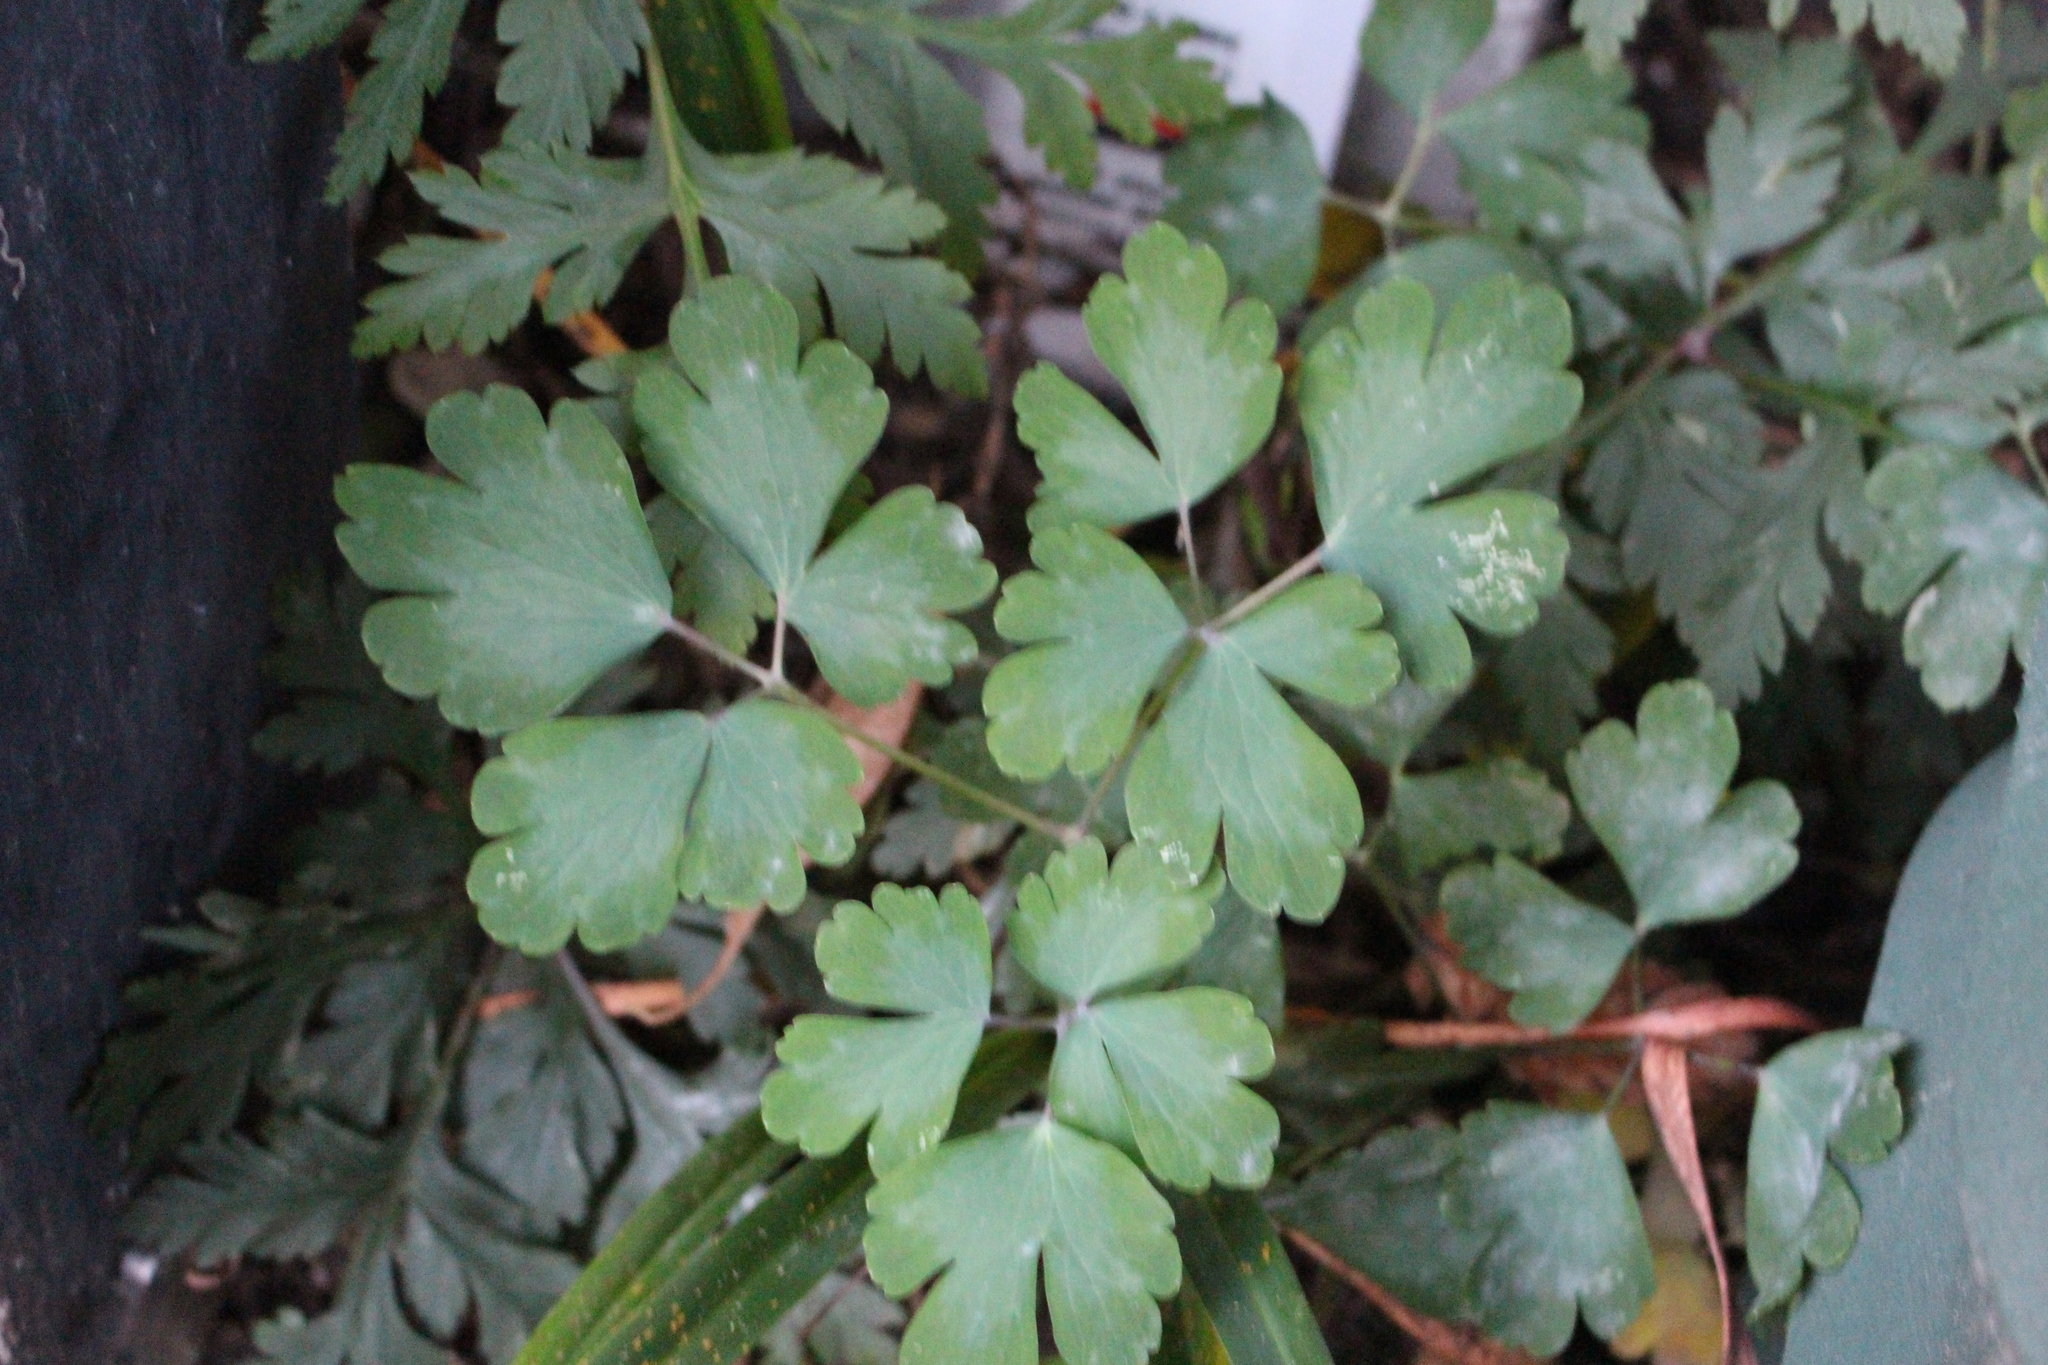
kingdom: Plantae
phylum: Tracheophyta
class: Magnoliopsida
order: Ranunculales
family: Ranunculaceae
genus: Aquilegia
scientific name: Aquilegia vulgaris
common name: Columbine
